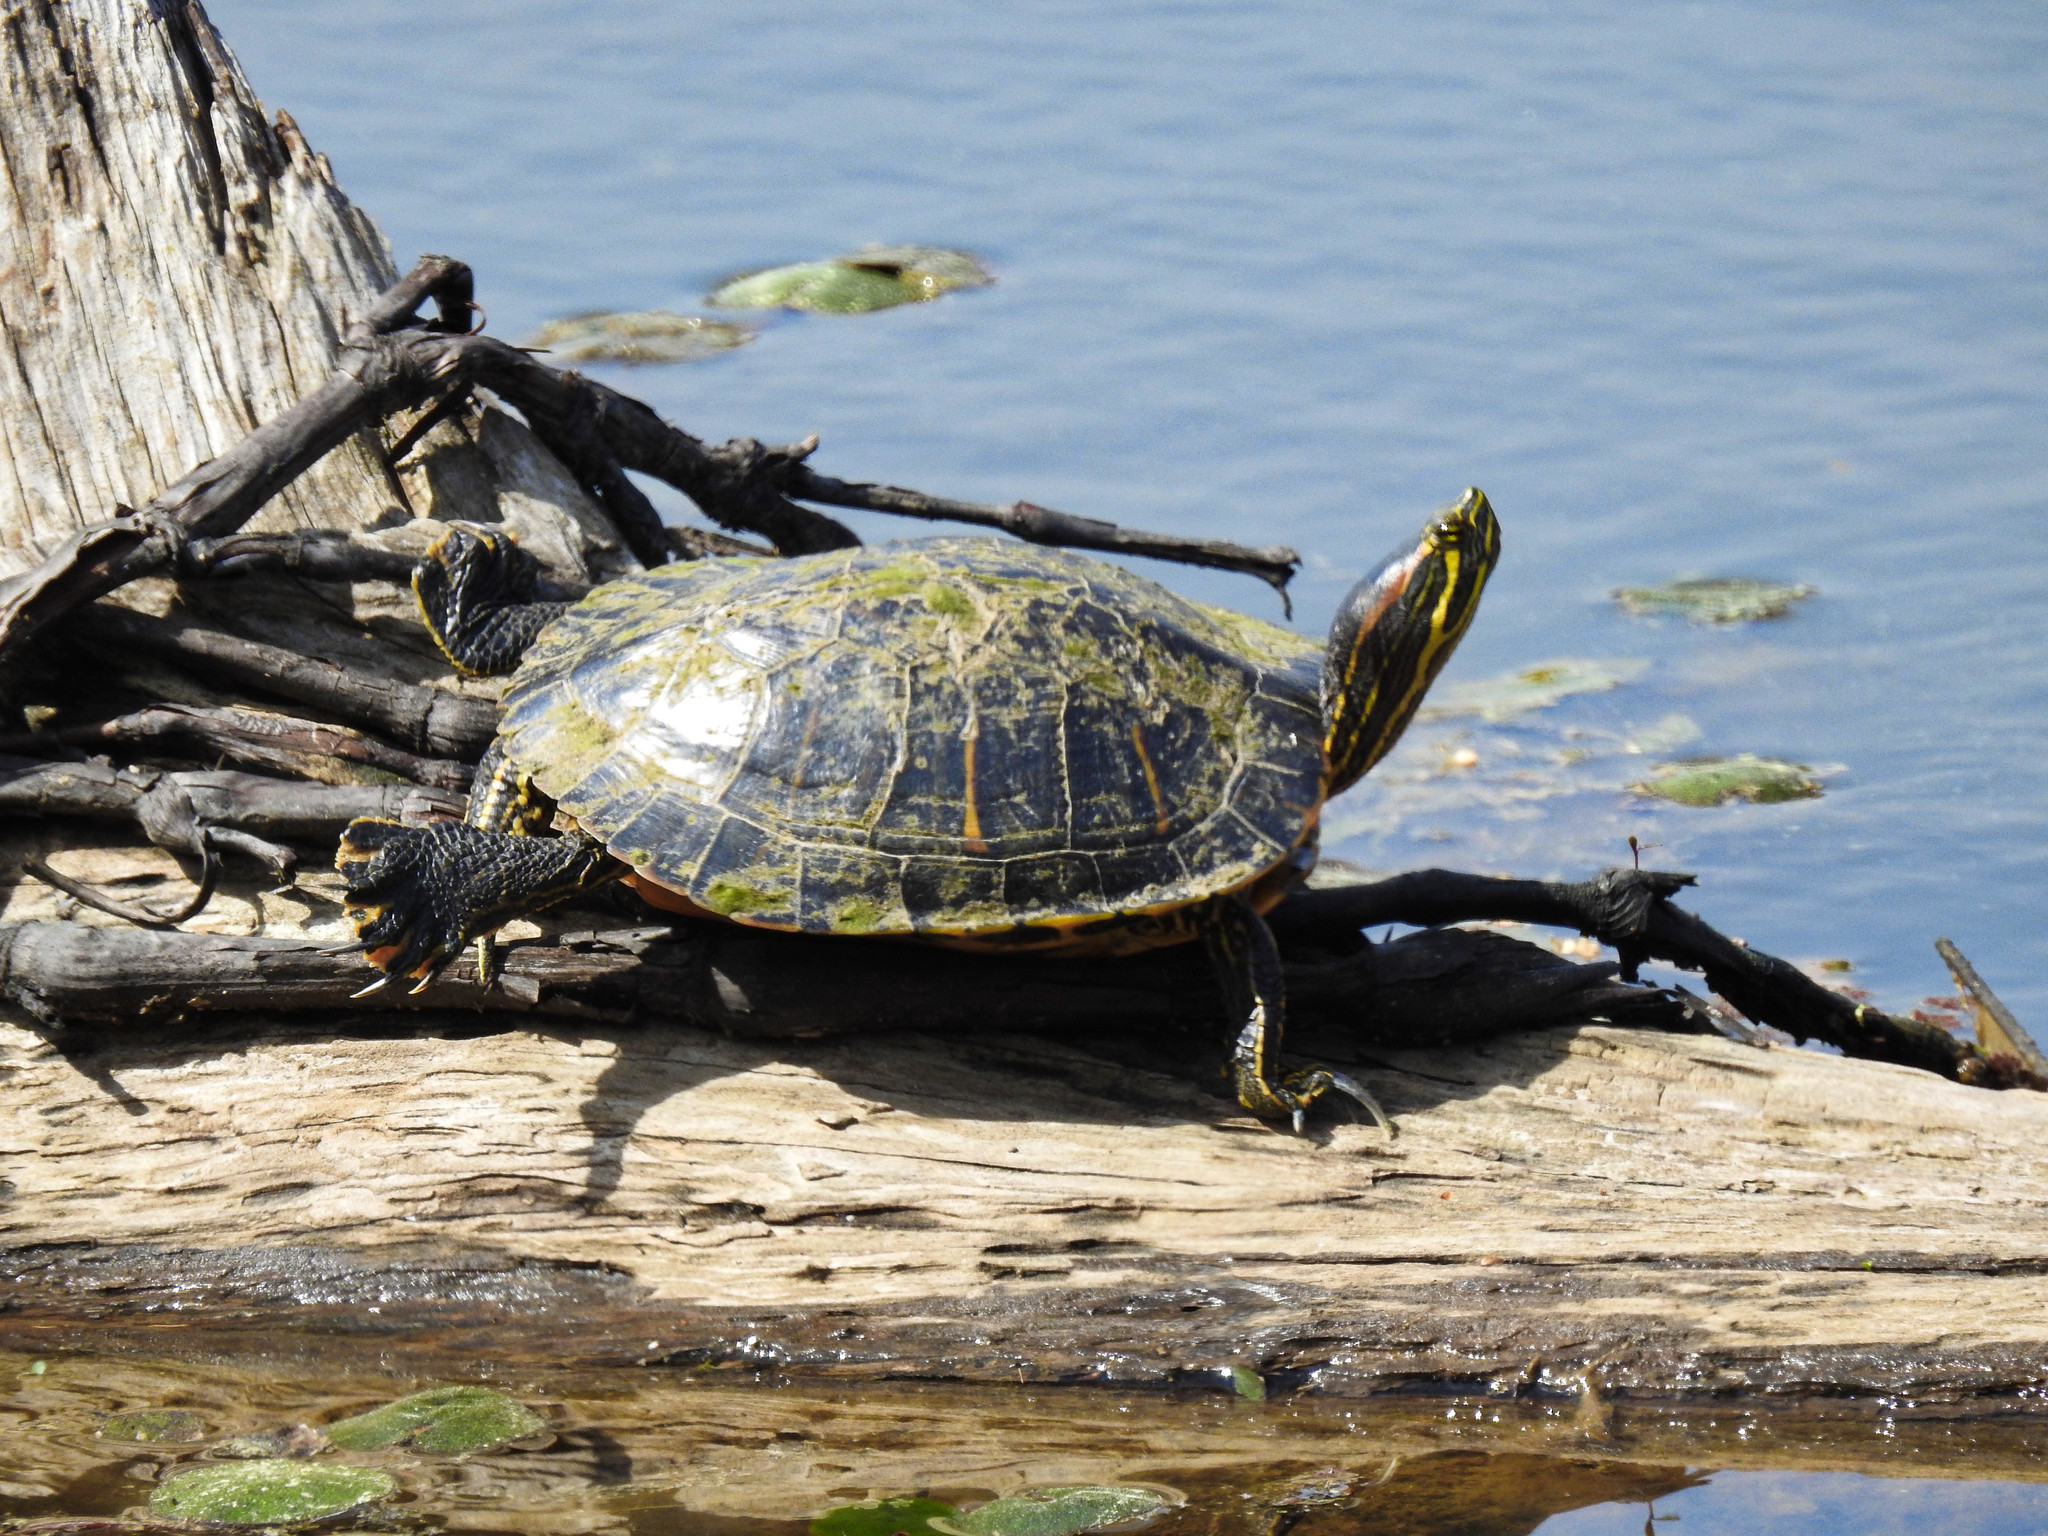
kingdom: Animalia
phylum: Chordata
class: Testudines
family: Emydidae
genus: Trachemys
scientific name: Trachemys scripta
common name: Slider
